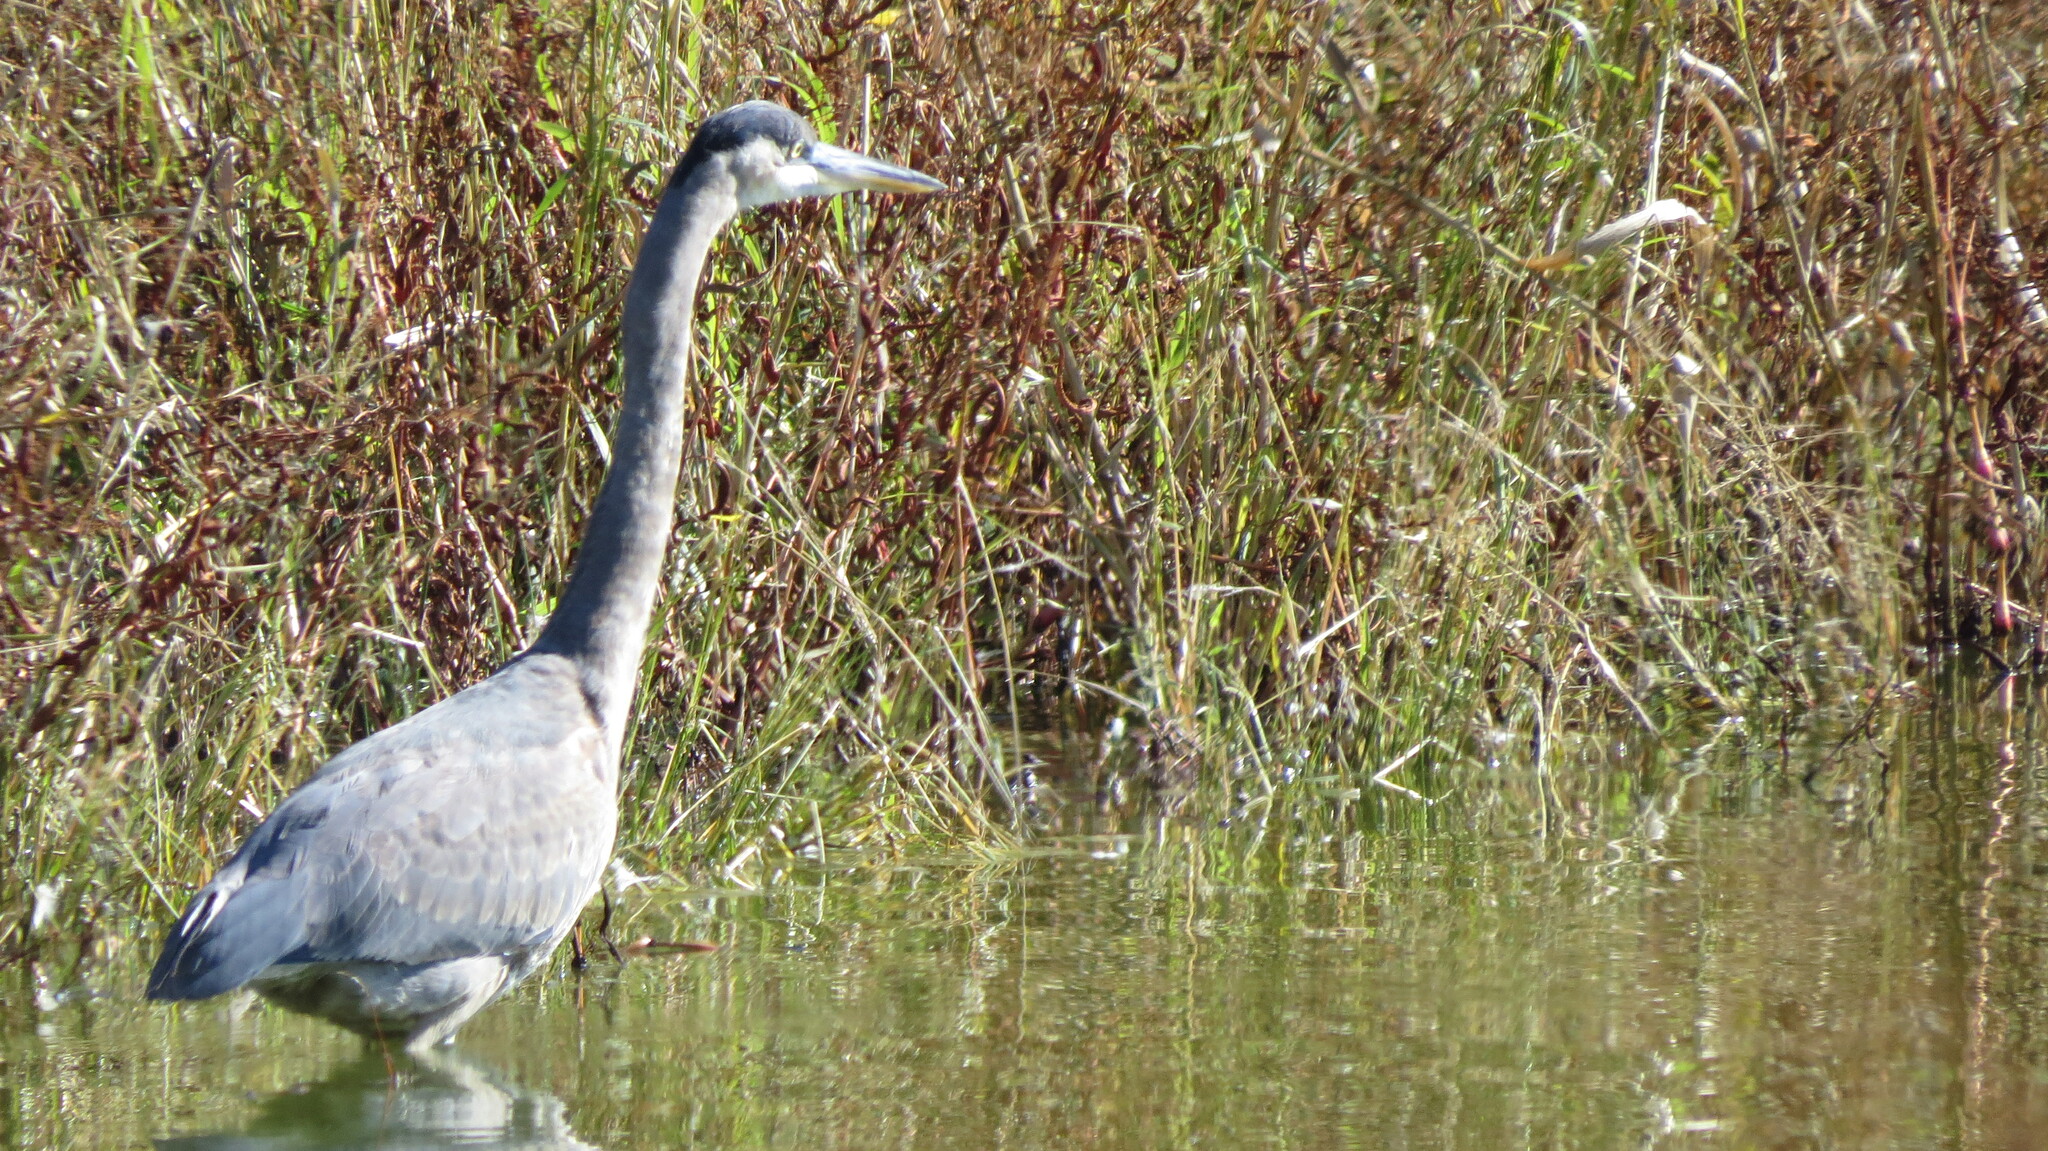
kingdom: Animalia
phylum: Chordata
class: Aves
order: Pelecaniformes
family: Ardeidae
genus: Ardea
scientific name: Ardea herodias
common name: Great blue heron
